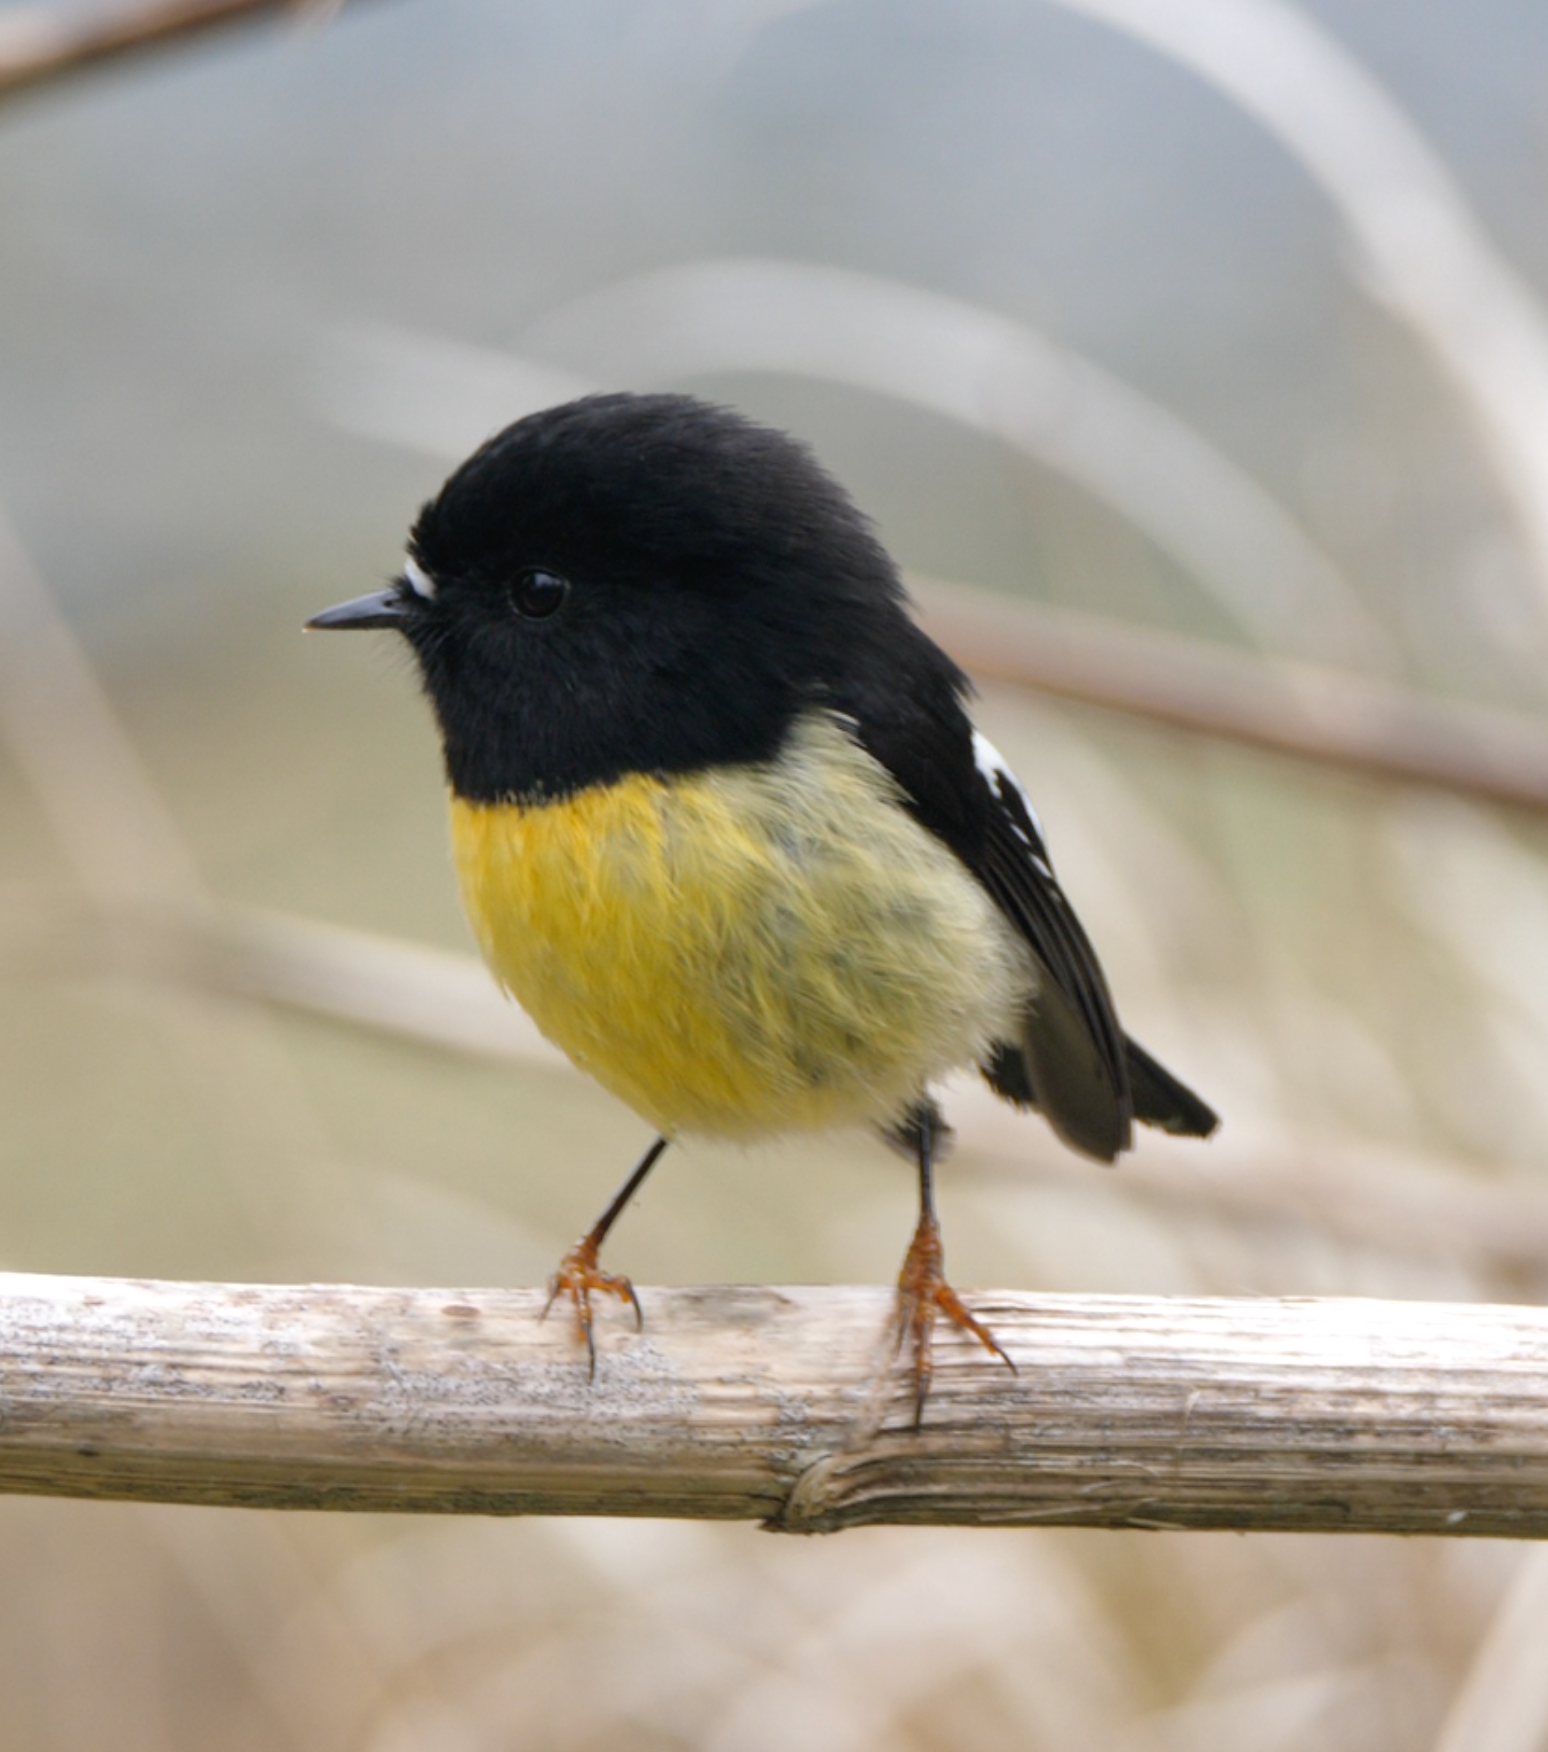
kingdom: Animalia
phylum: Chordata
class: Aves
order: Passeriformes
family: Petroicidae
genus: Petroica
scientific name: Petroica macrocephala
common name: Tomtit
